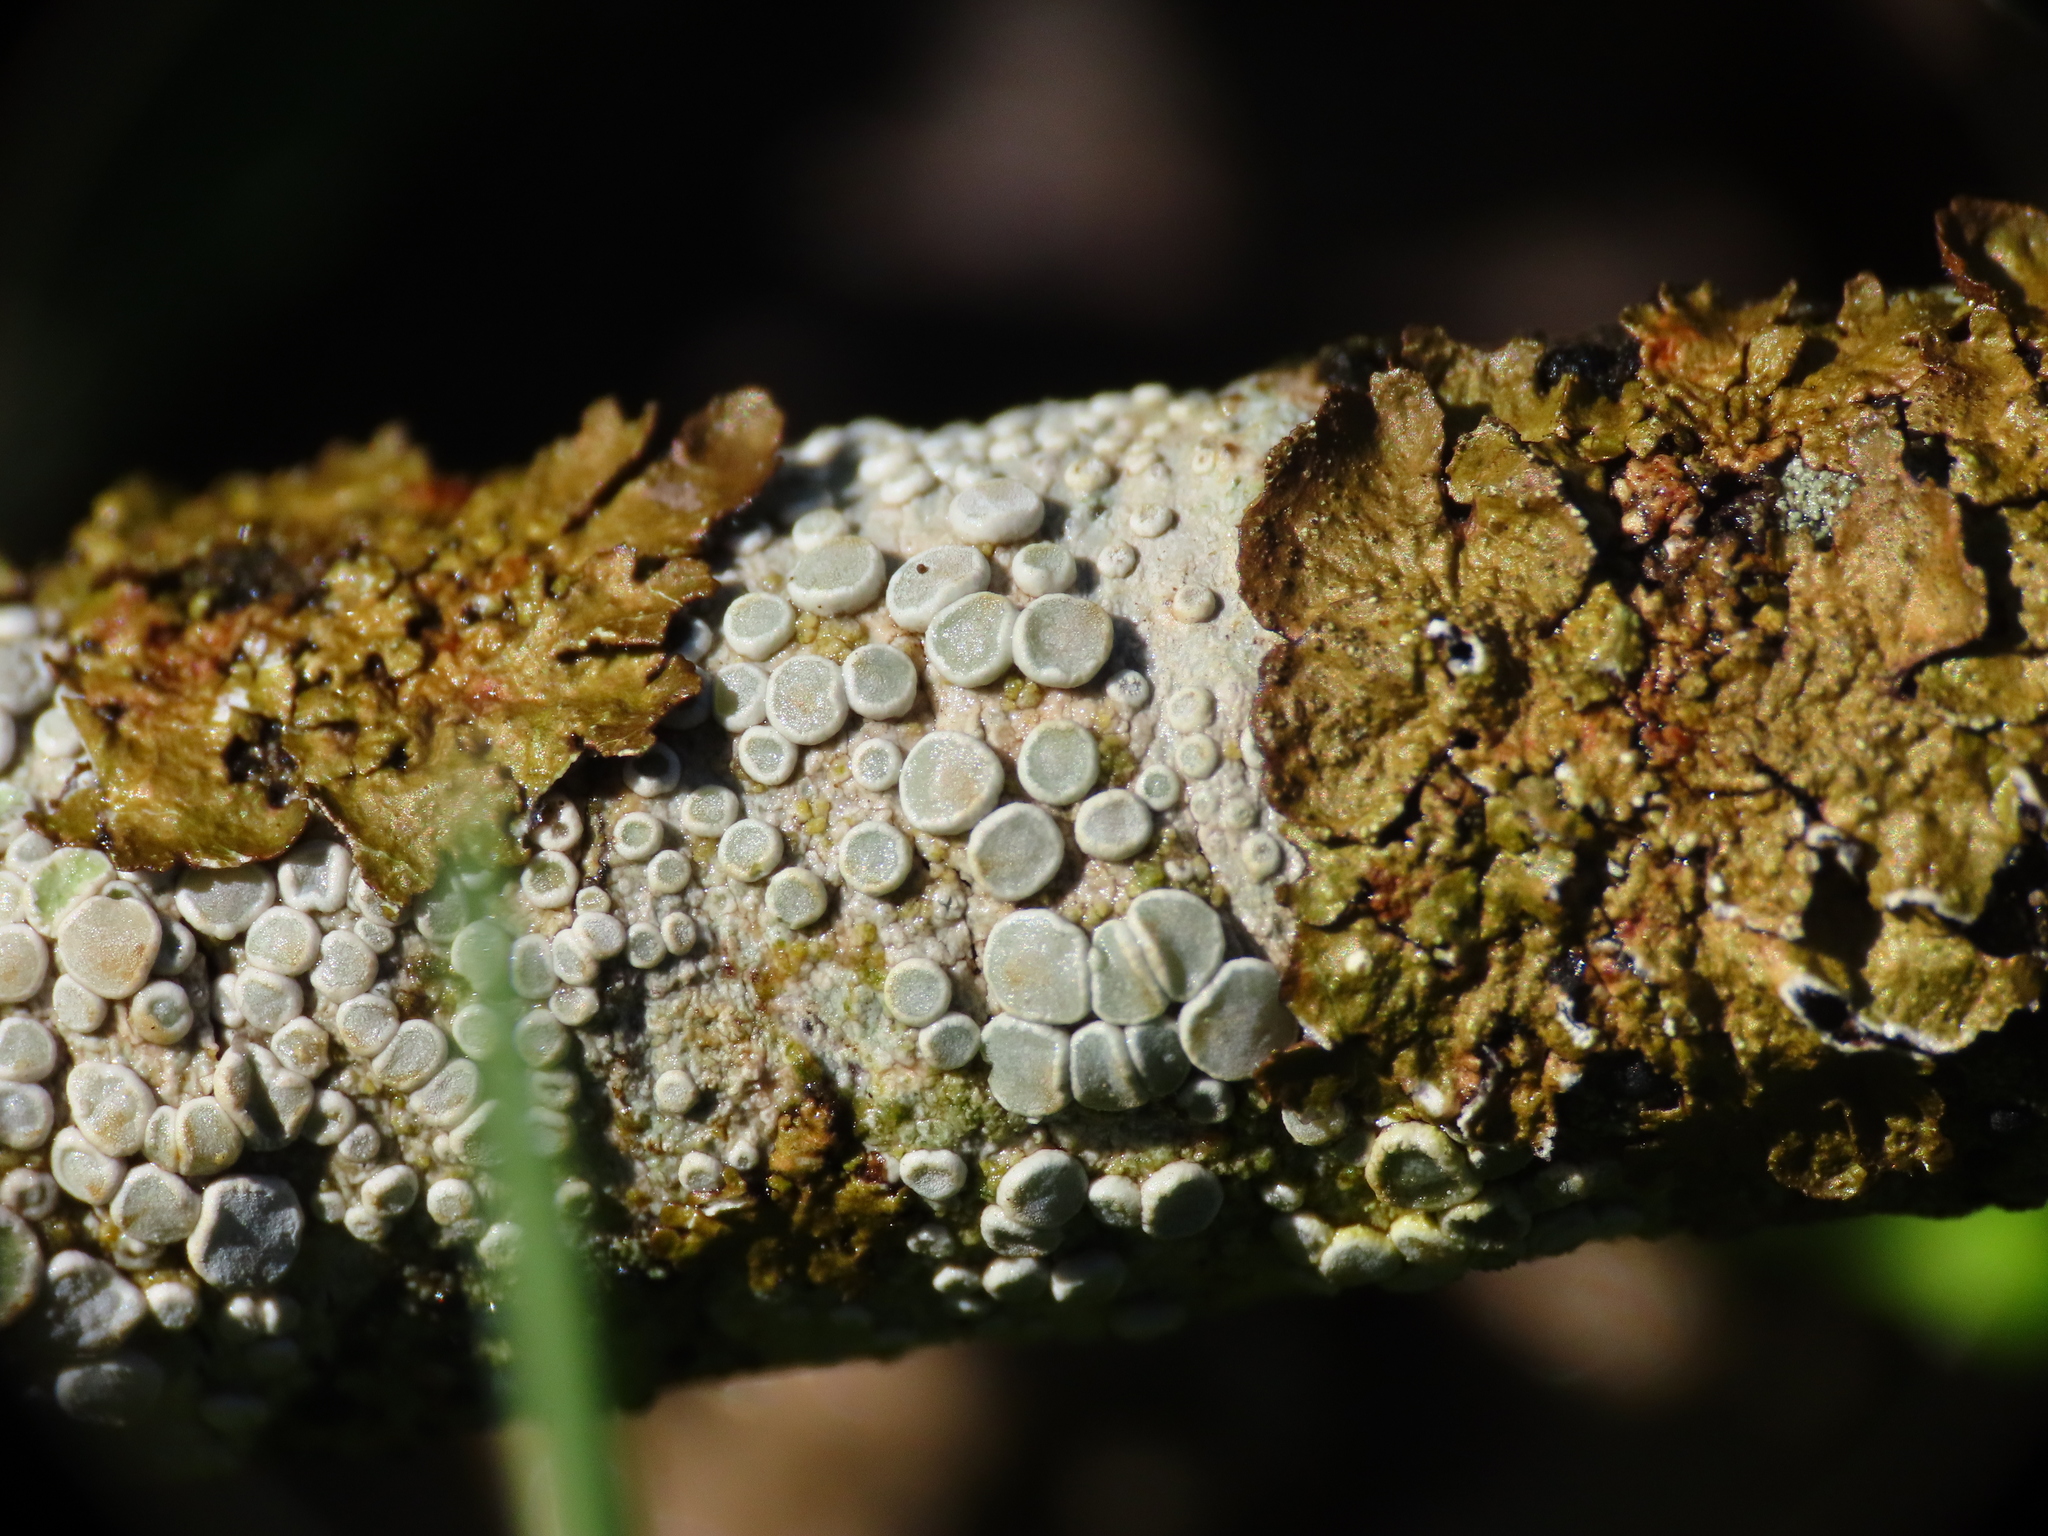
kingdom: Fungi
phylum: Ascomycota
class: Lecanoromycetes
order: Lecanorales
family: Lecanoraceae
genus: Glaucomaria
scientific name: Glaucomaria carpinea
